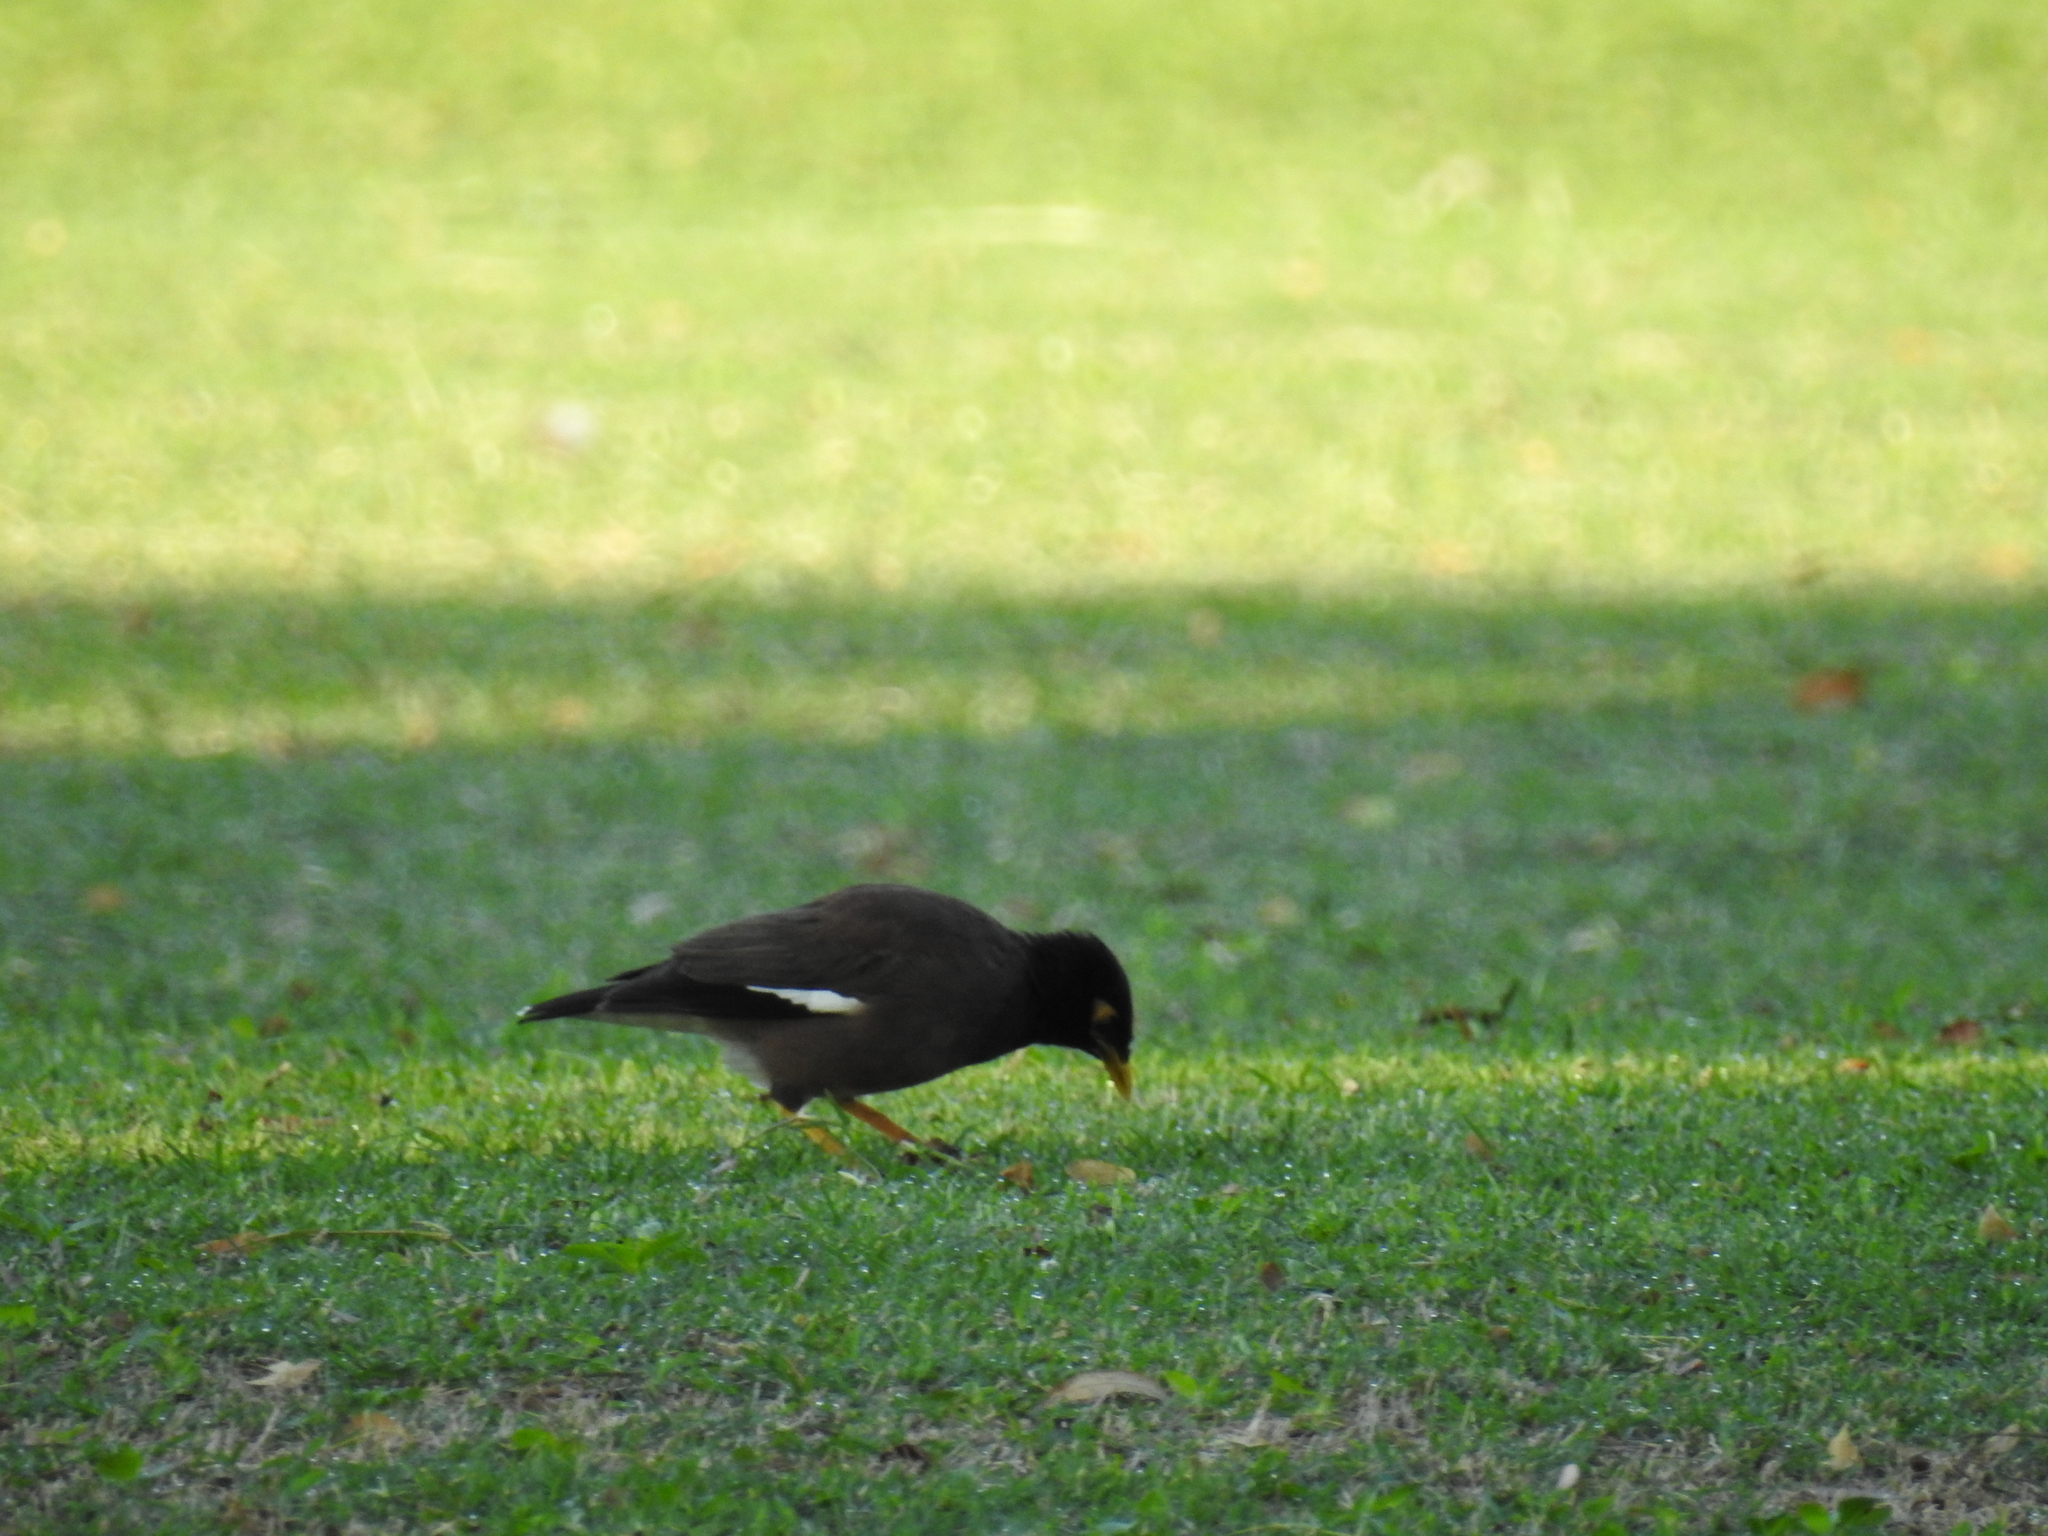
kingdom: Animalia
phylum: Chordata
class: Aves
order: Passeriformes
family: Sturnidae
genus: Acridotheres
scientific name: Acridotheres tristis
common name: Common myna
